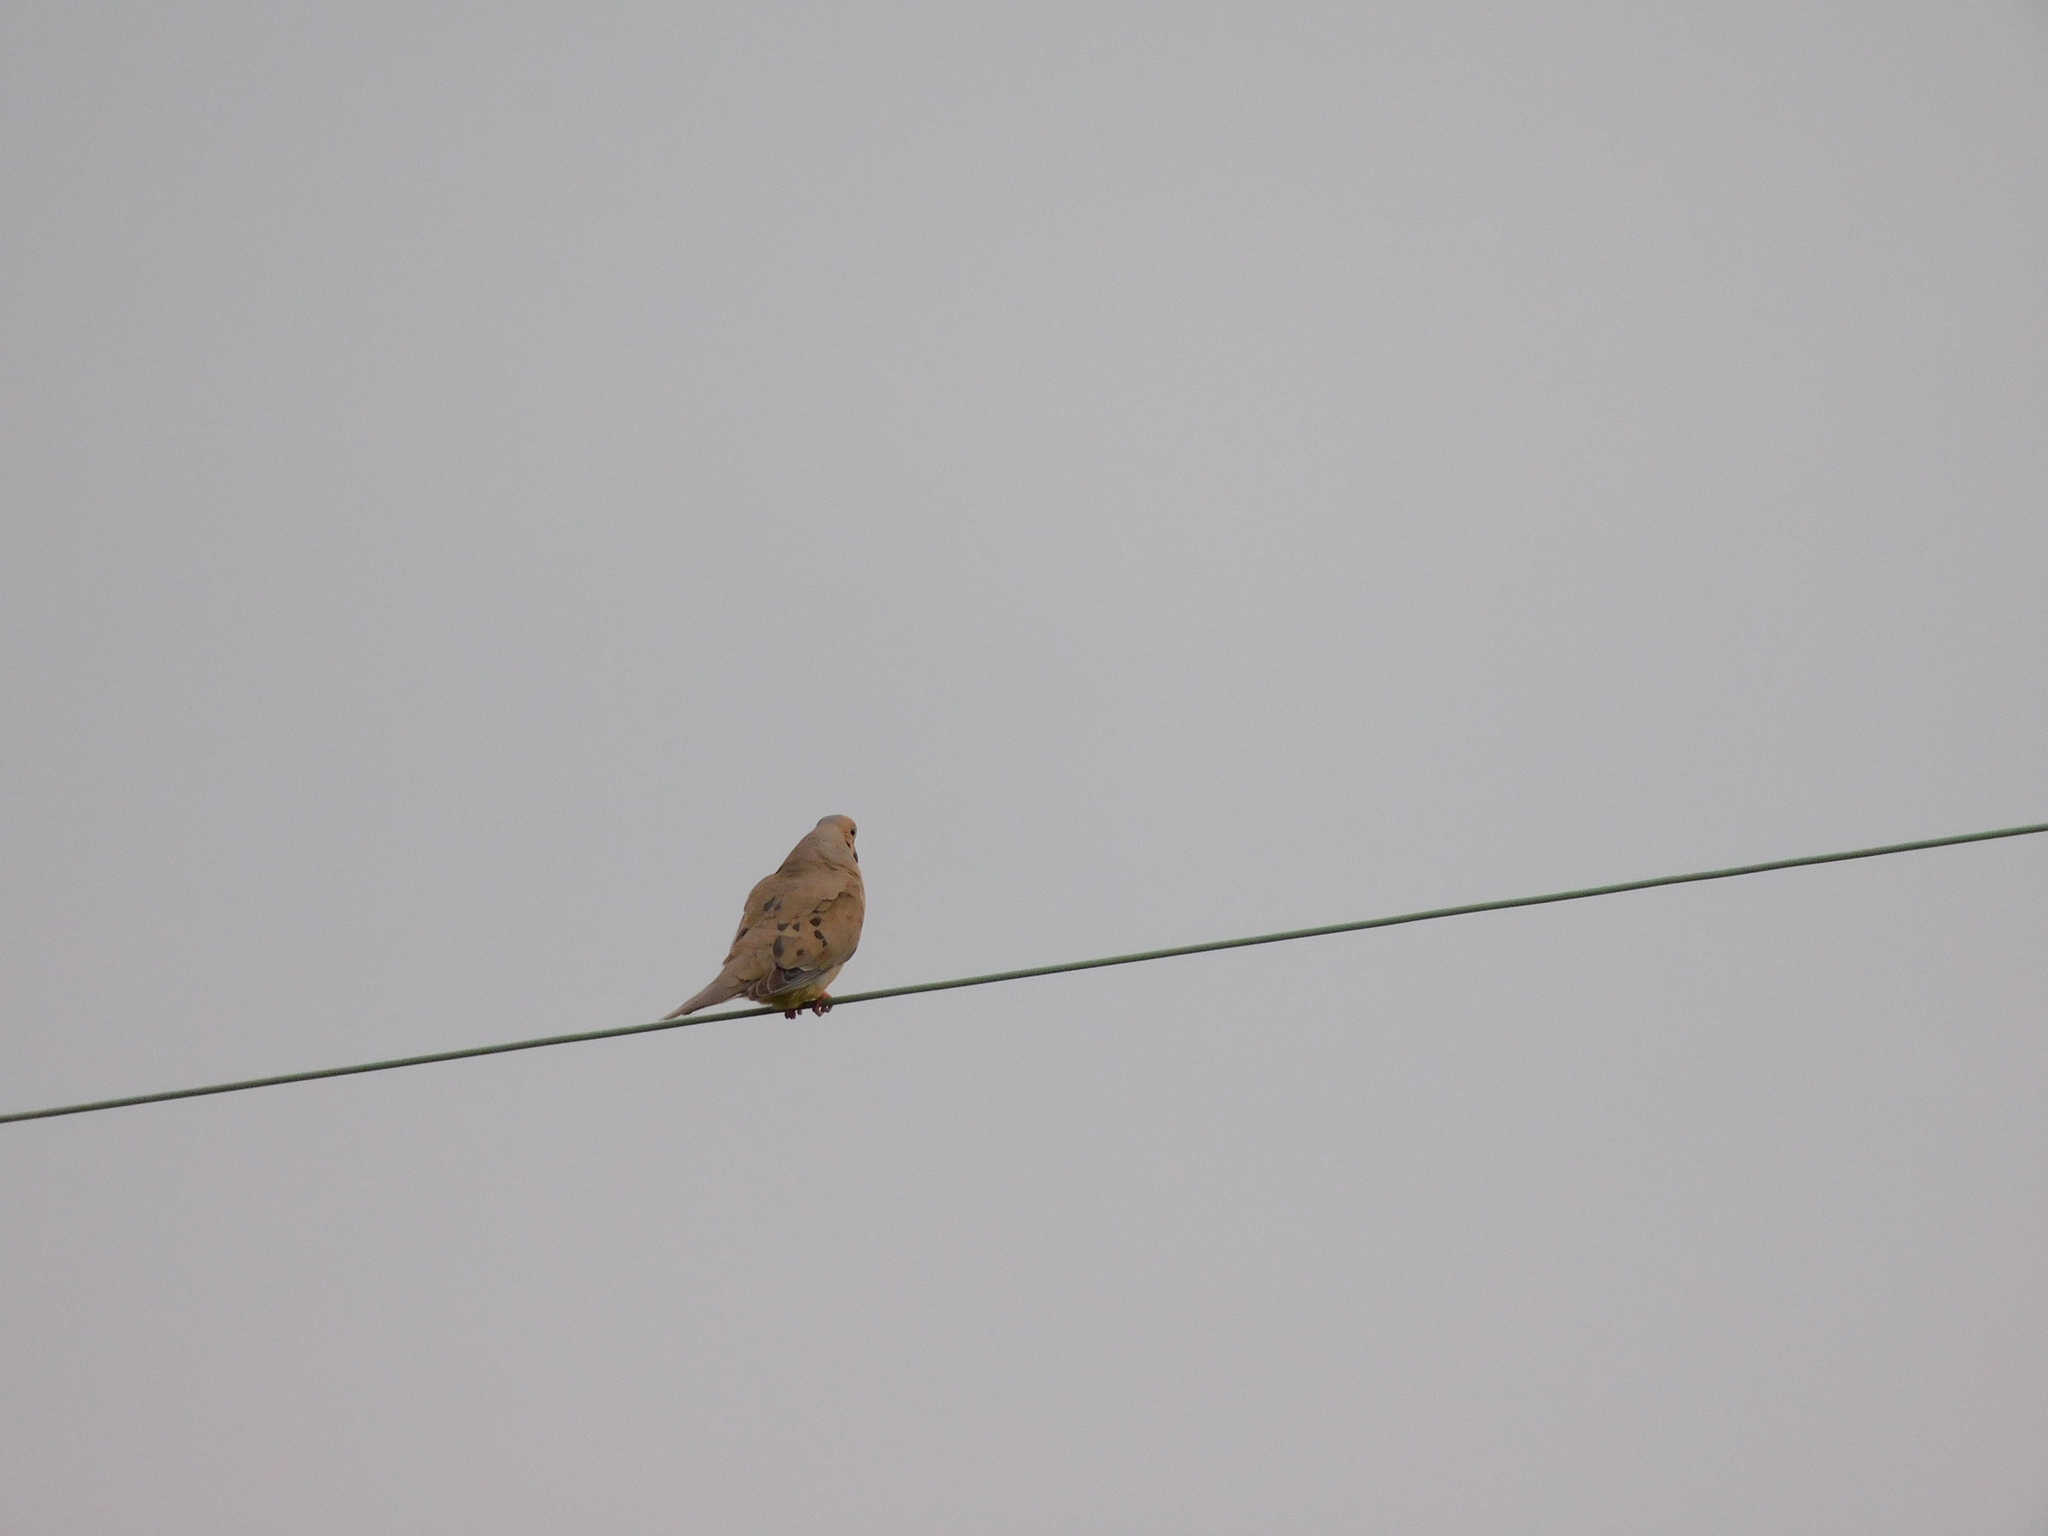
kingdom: Animalia
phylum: Chordata
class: Aves
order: Columbiformes
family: Columbidae
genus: Zenaida
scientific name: Zenaida macroura
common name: Mourning dove
